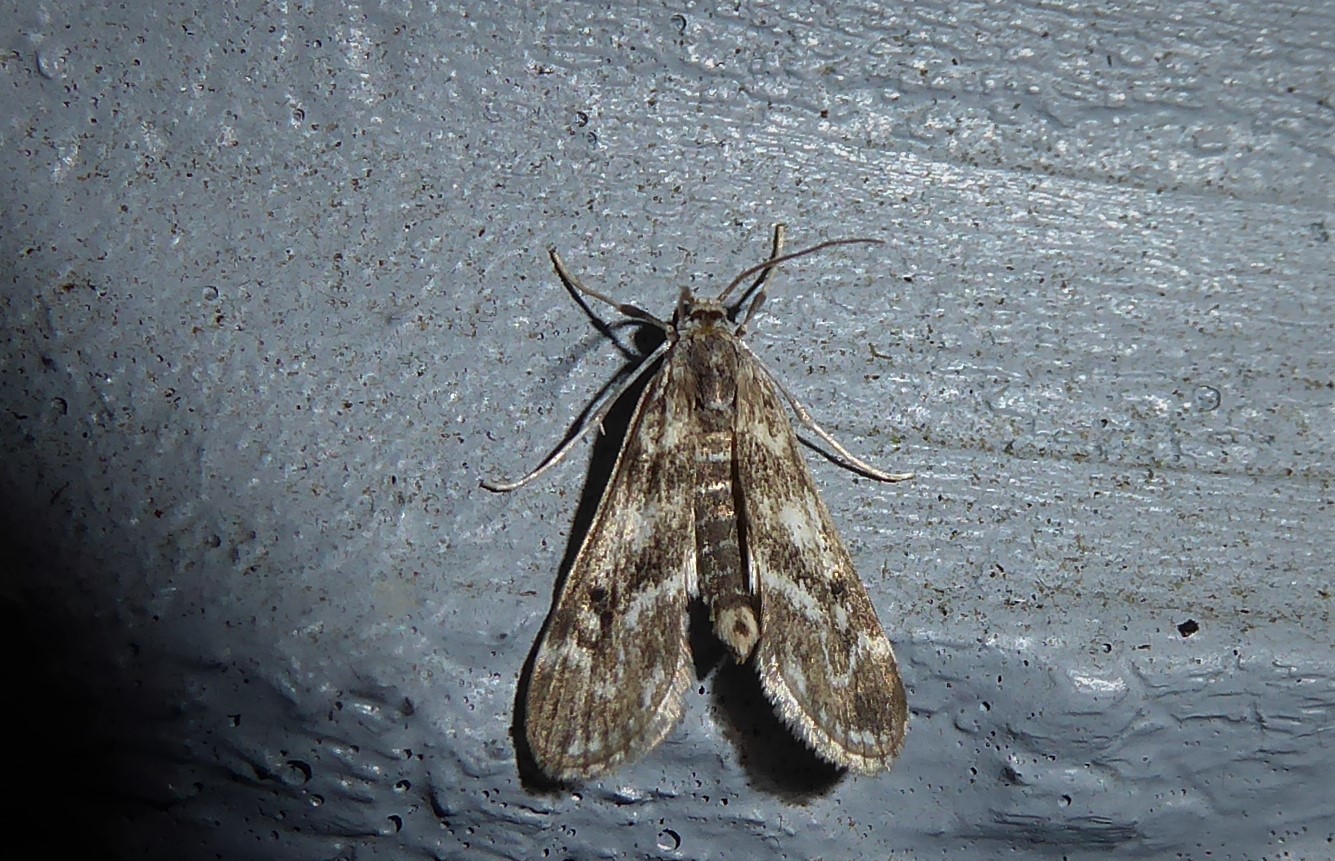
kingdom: Animalia
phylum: Arthropoda
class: Insecta
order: Lepidoptera
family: Crambidae
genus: Hygraula
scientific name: Hygraula nitens
